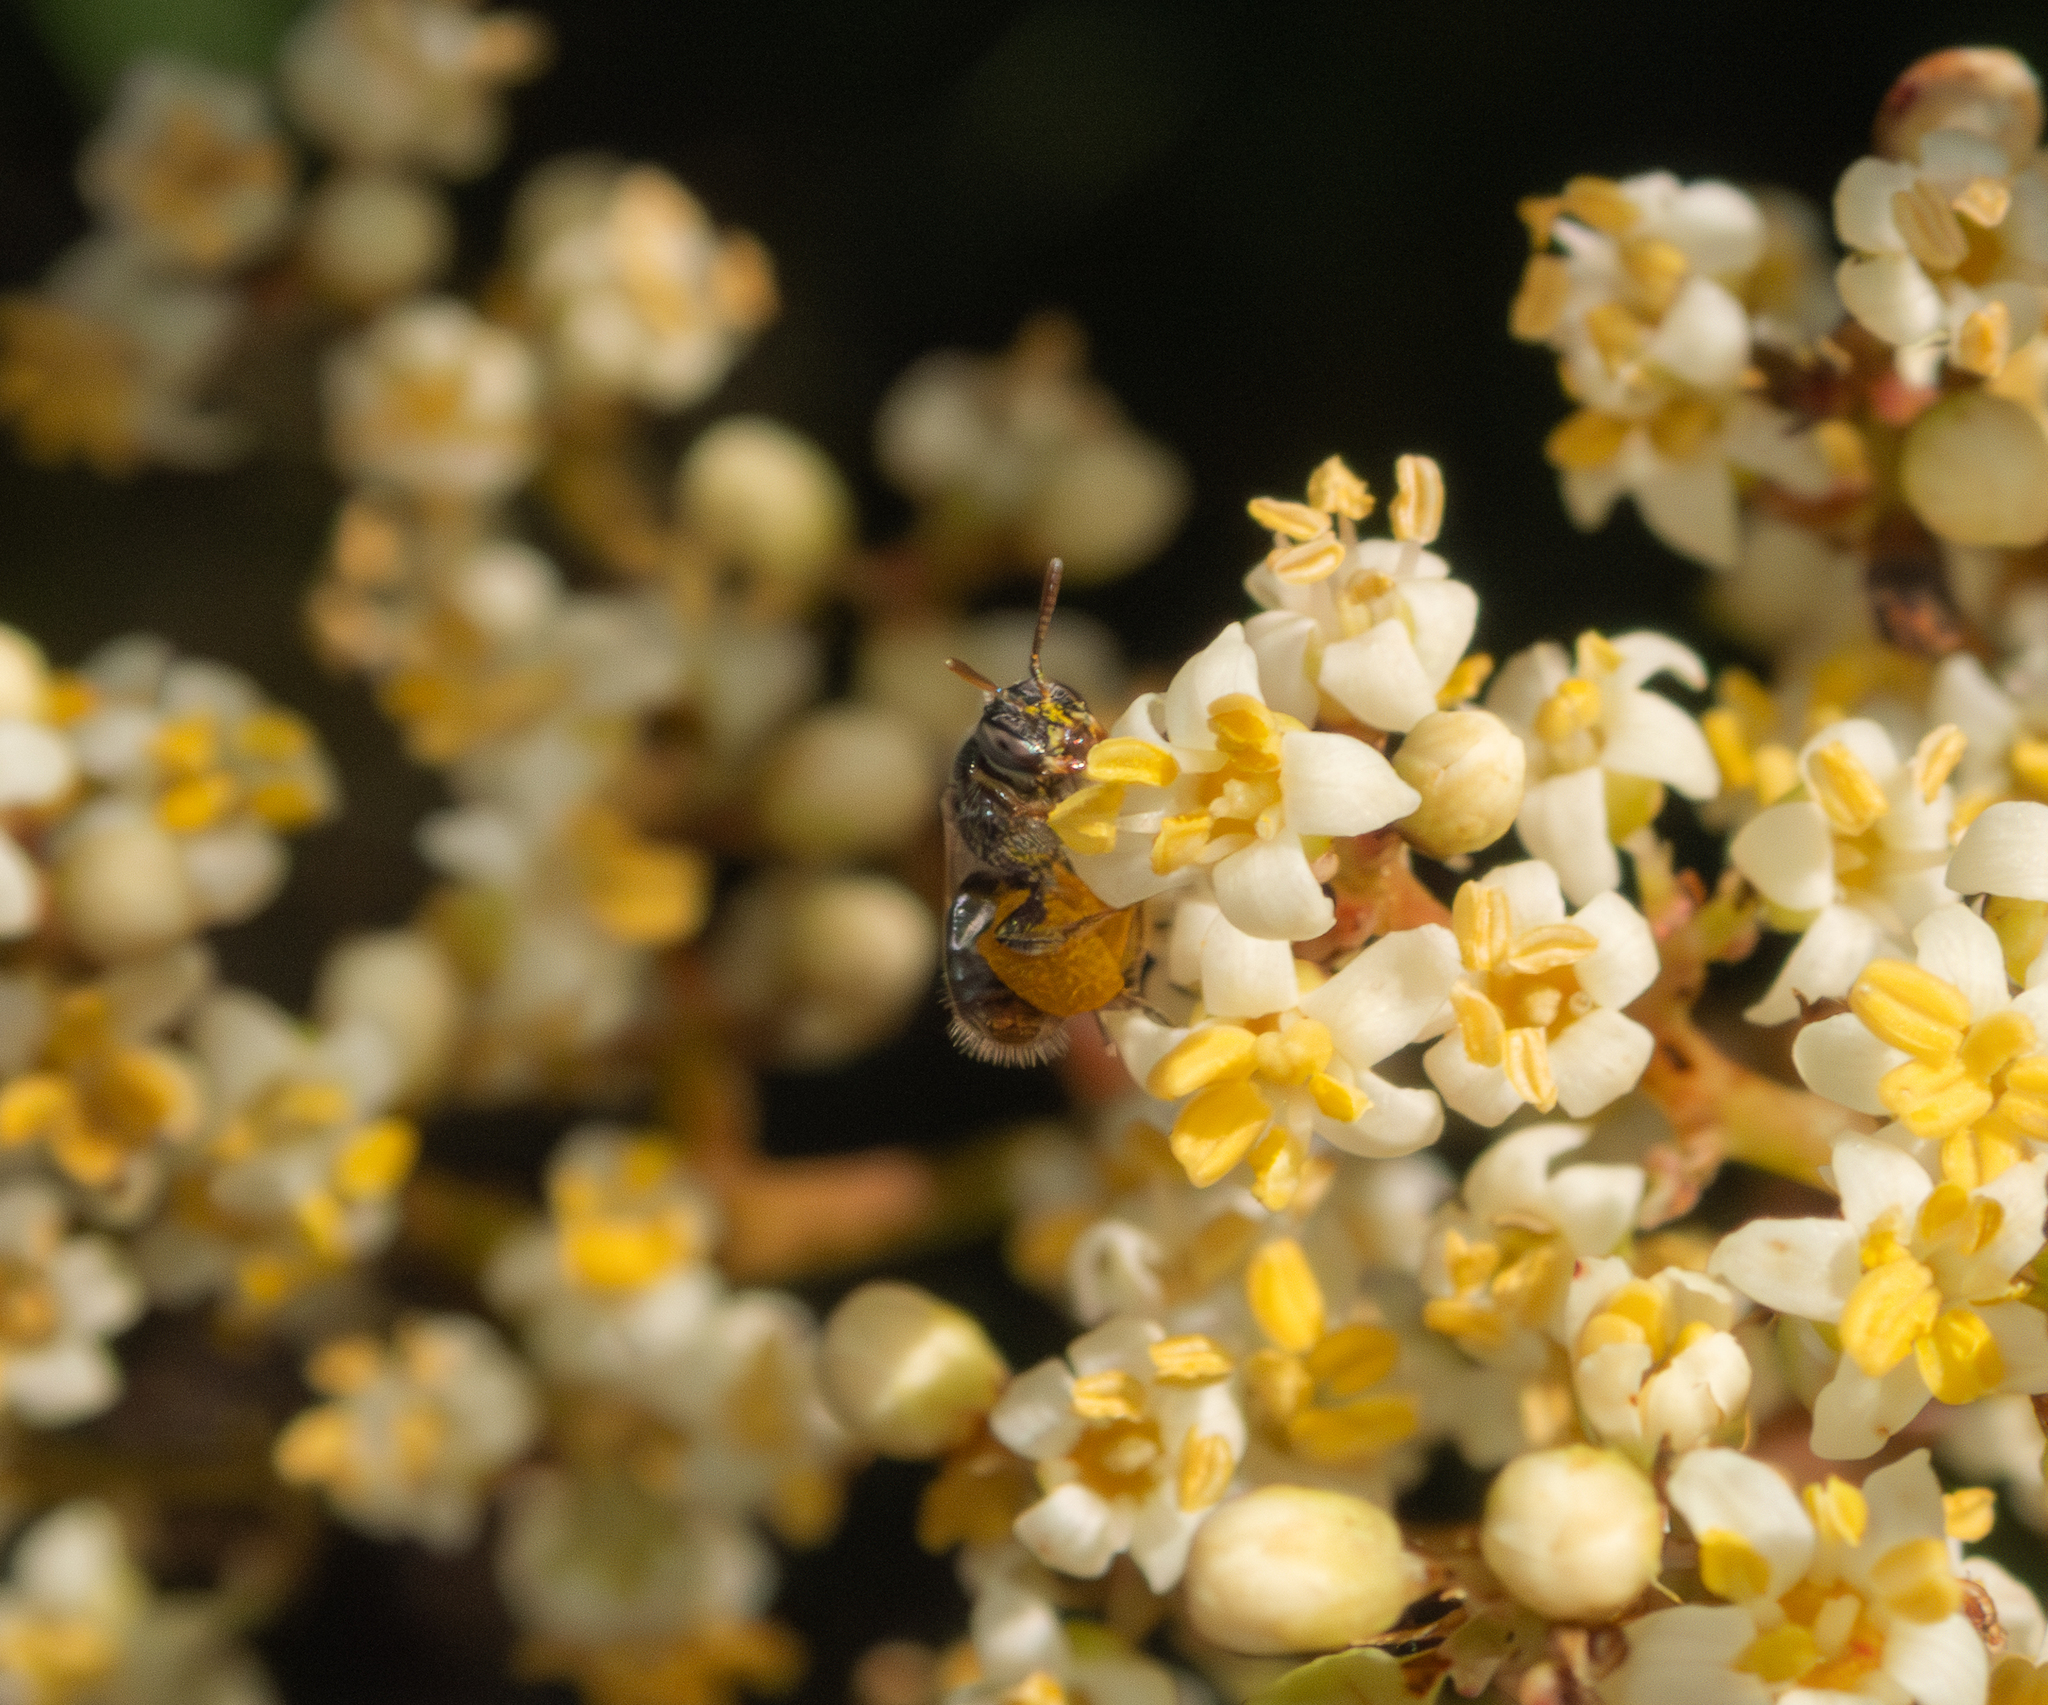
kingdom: Animalia
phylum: Arthropoda
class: Insecta
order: Hymenoptera
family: Andrenidae
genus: Perdita
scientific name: Perdita rhois
